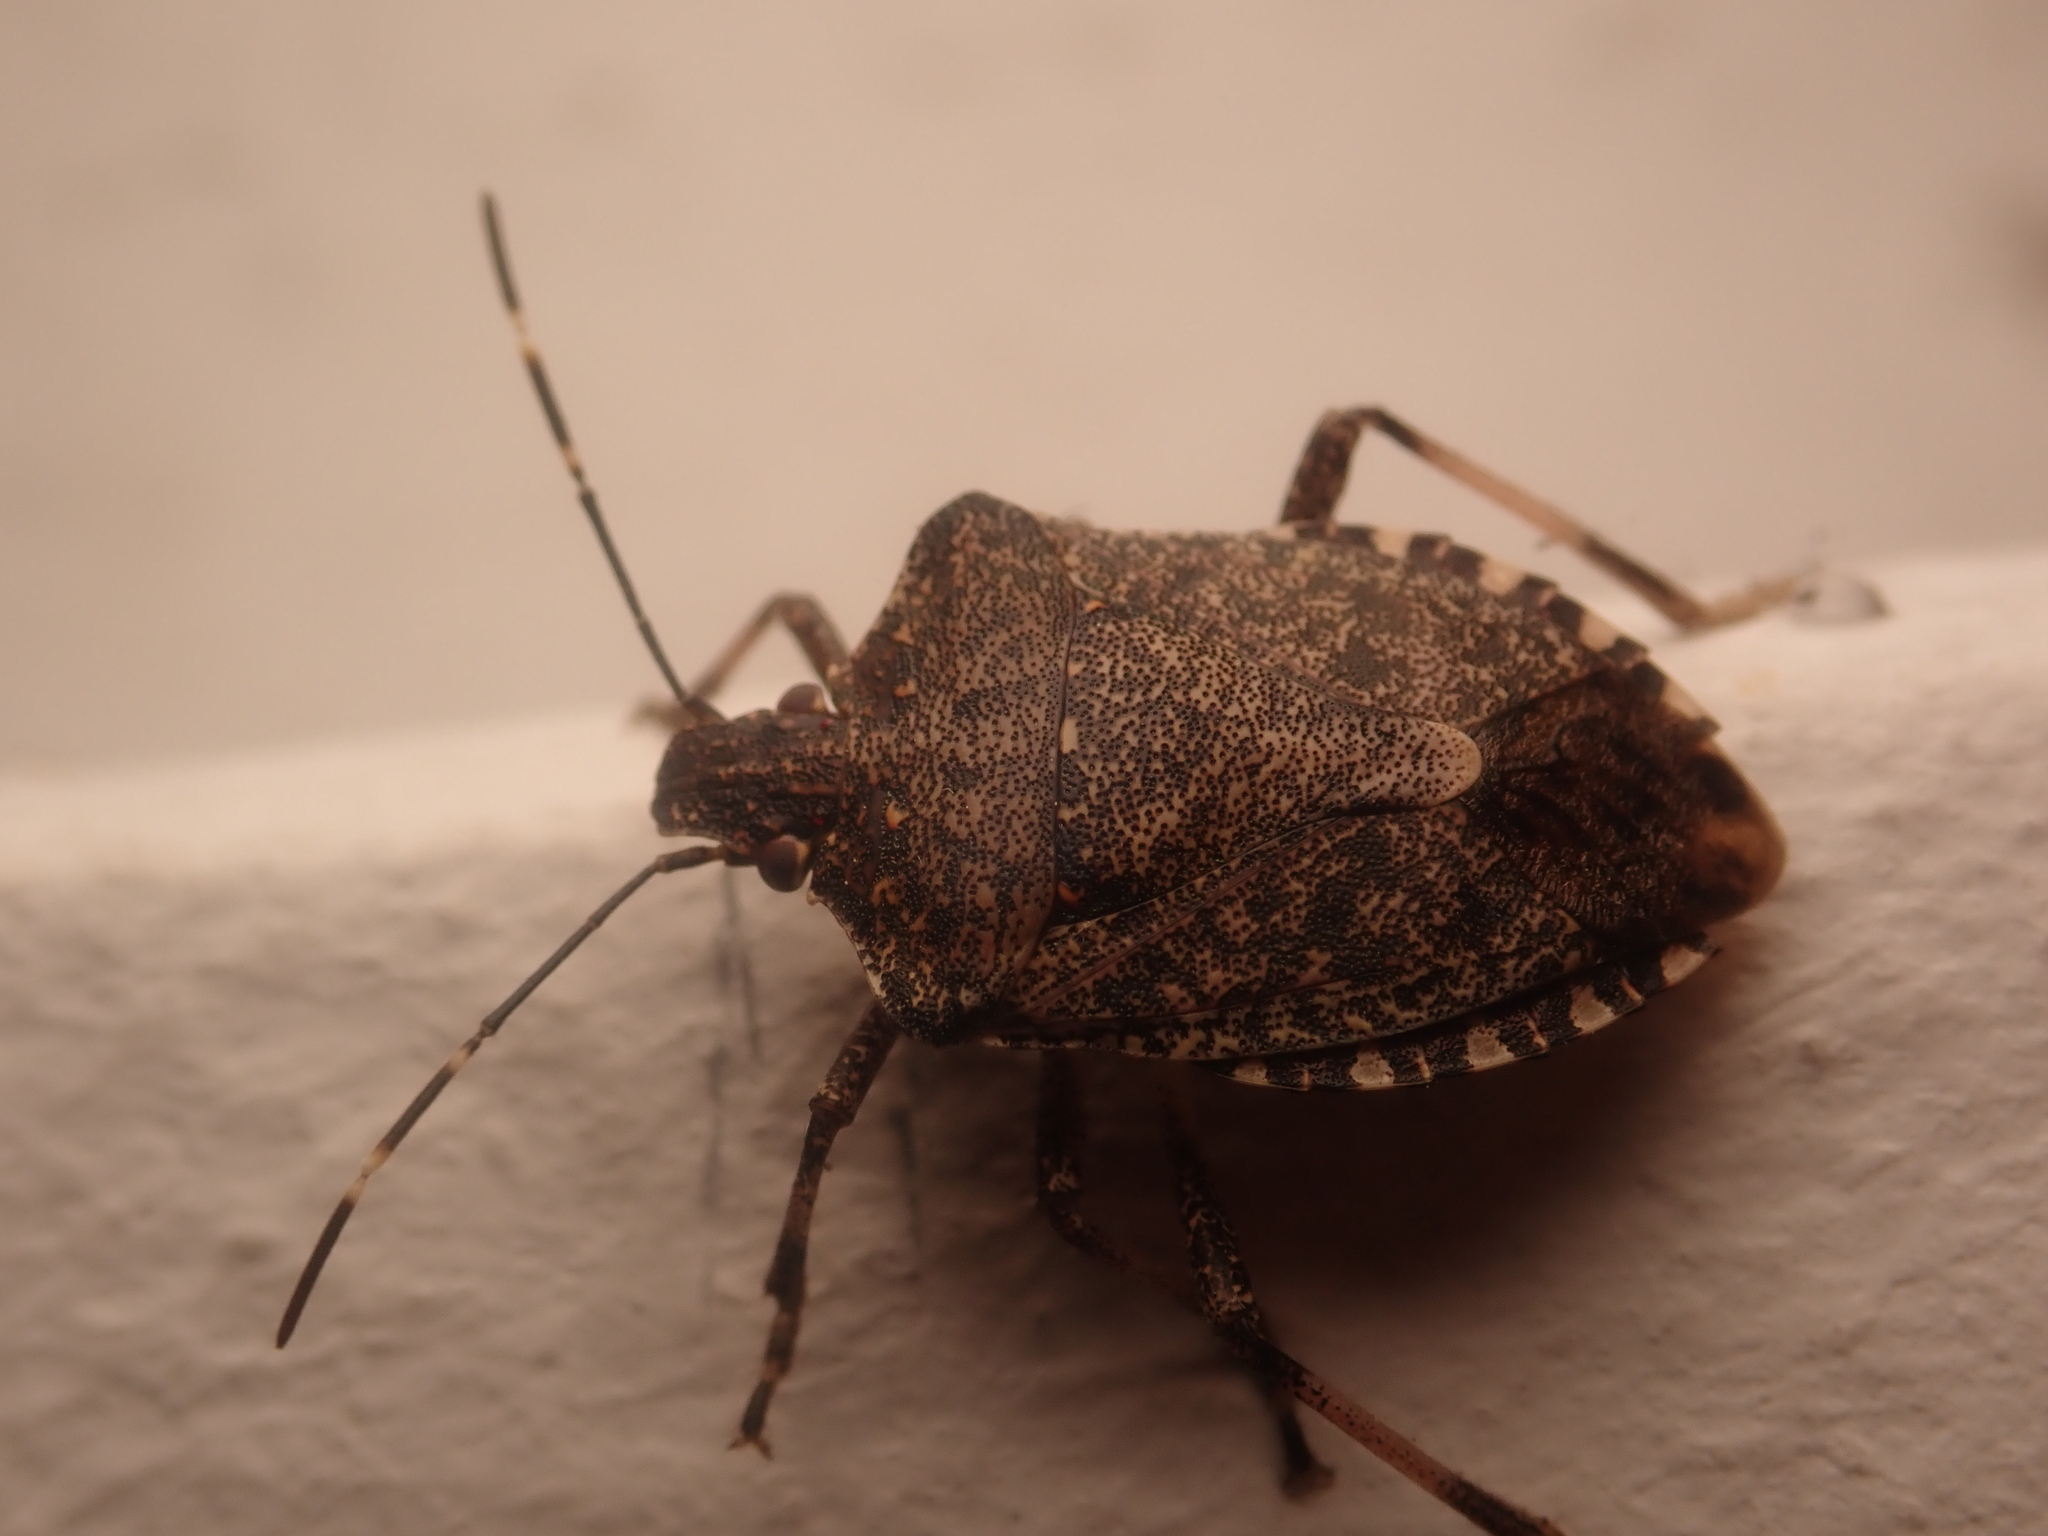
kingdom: Animalia
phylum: Arthropoda
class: Insecta
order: Hemiptera
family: Pentatomidae
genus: Halyomorpha
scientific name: Halyomorpha halys
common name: Brown marmorated stink bug
